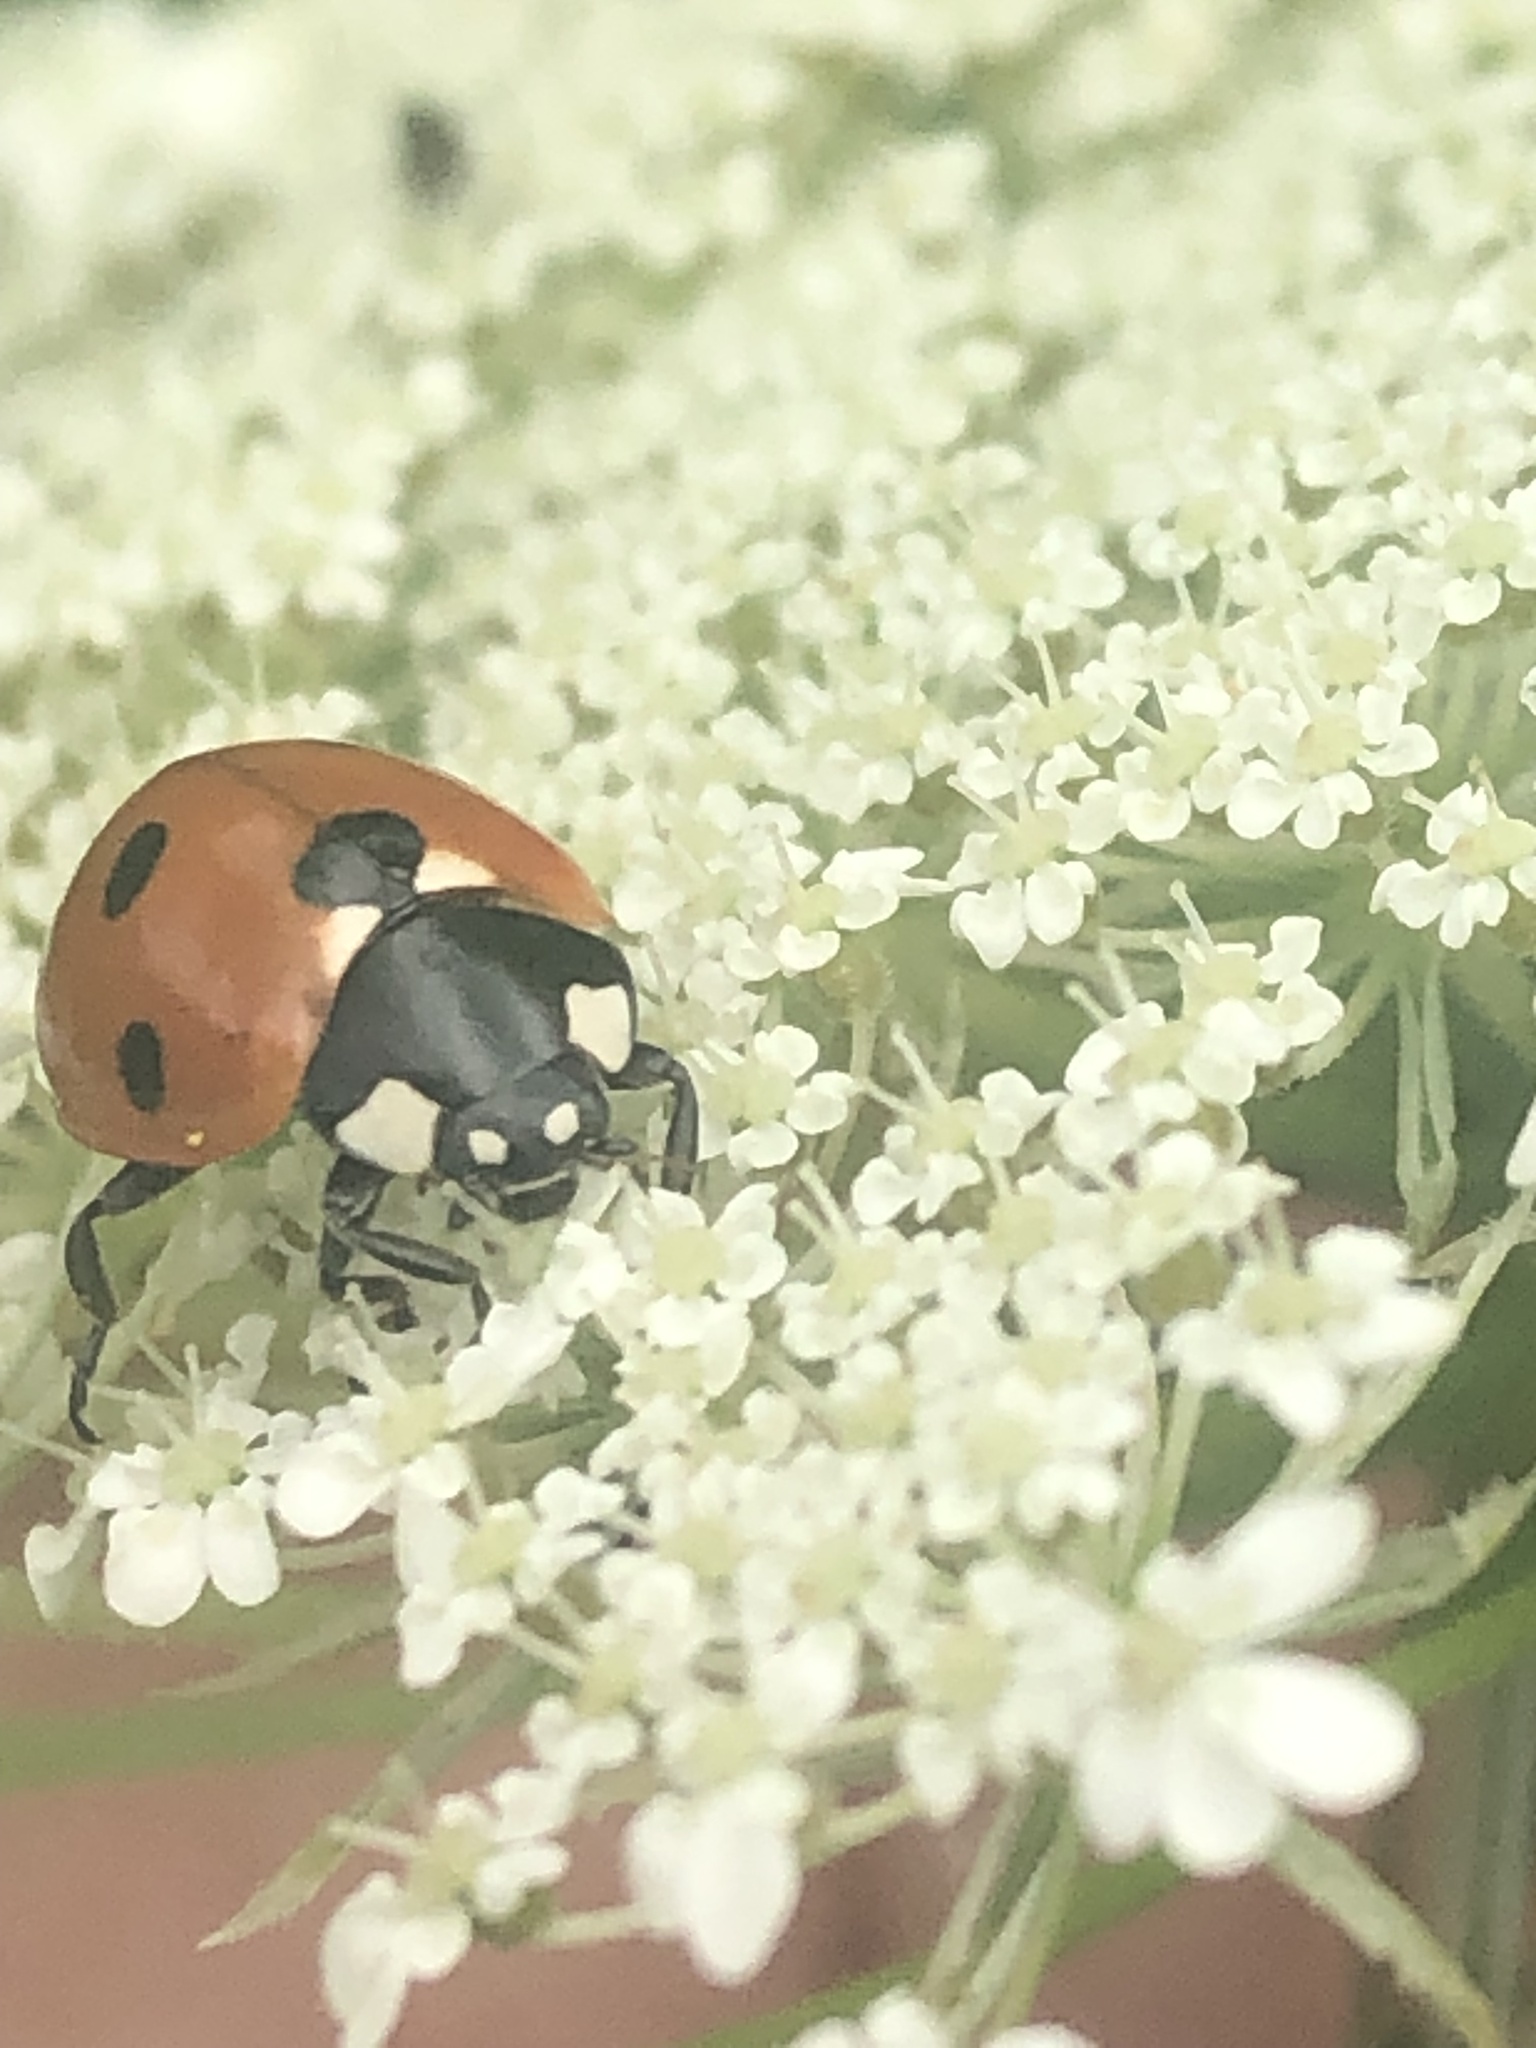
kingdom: Animalia
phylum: Arthropoda
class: Insecta
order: Coleoptera
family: Coccinellidae
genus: Coccinella
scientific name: Coccinella septempunctata
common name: Sevenspotted lady beetle
